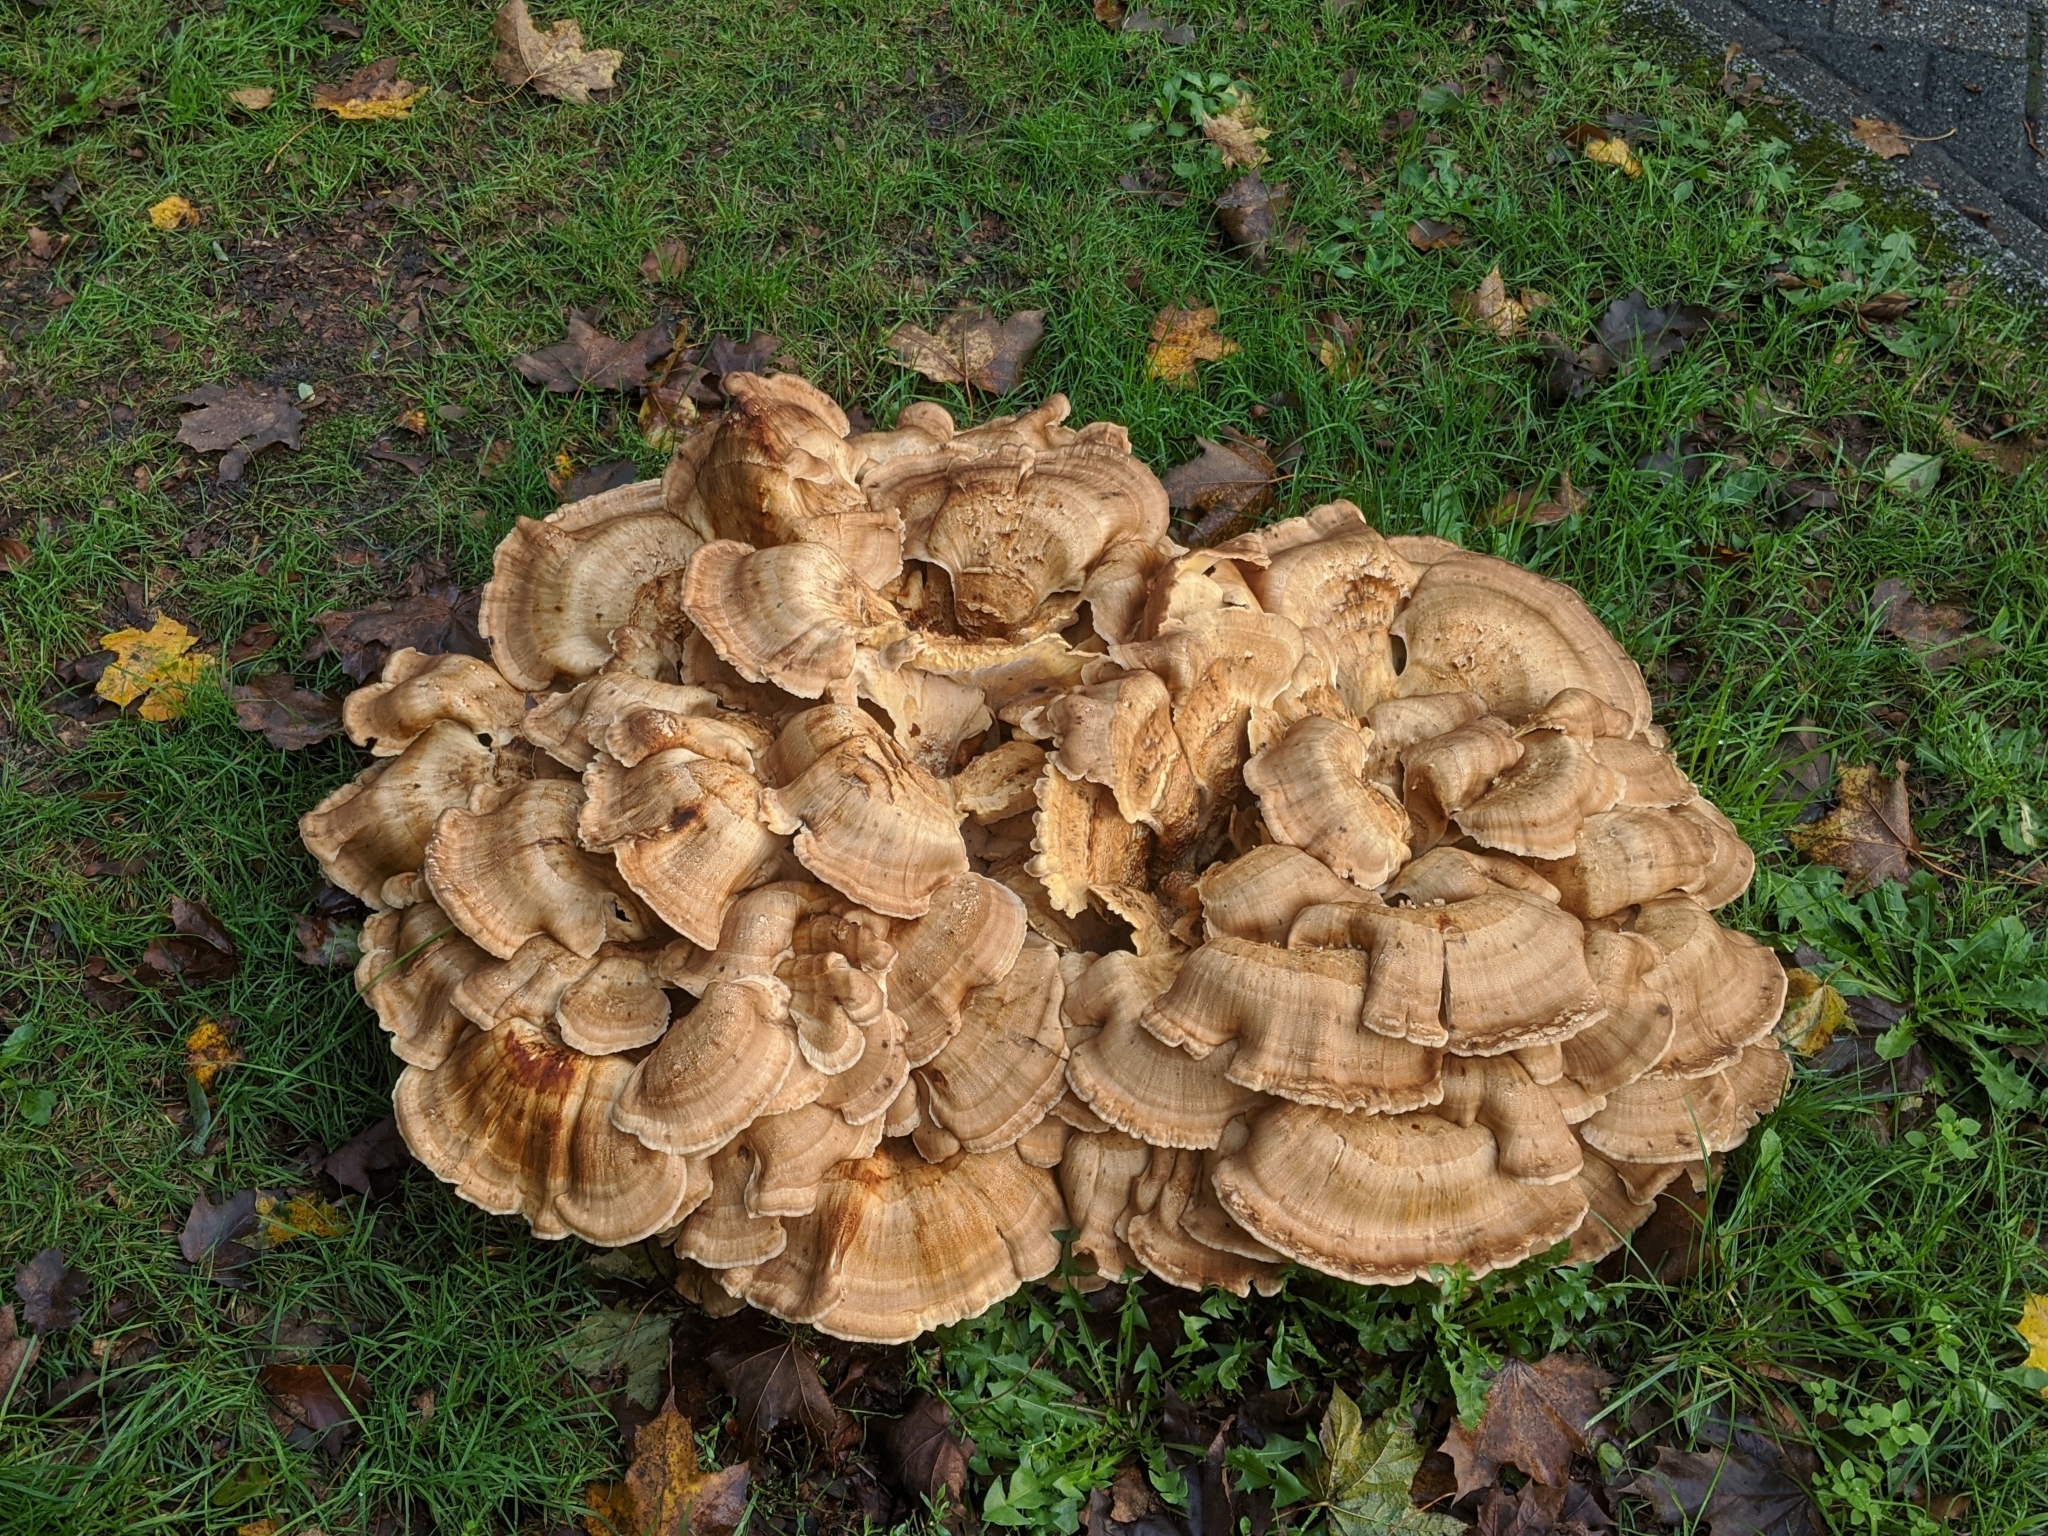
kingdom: Fungi
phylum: Basidiomycota
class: Agaricomycetes
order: Polyporales
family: Meripilaceae
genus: Meripilus
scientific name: Meripilus giganteus
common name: Giant polypore
